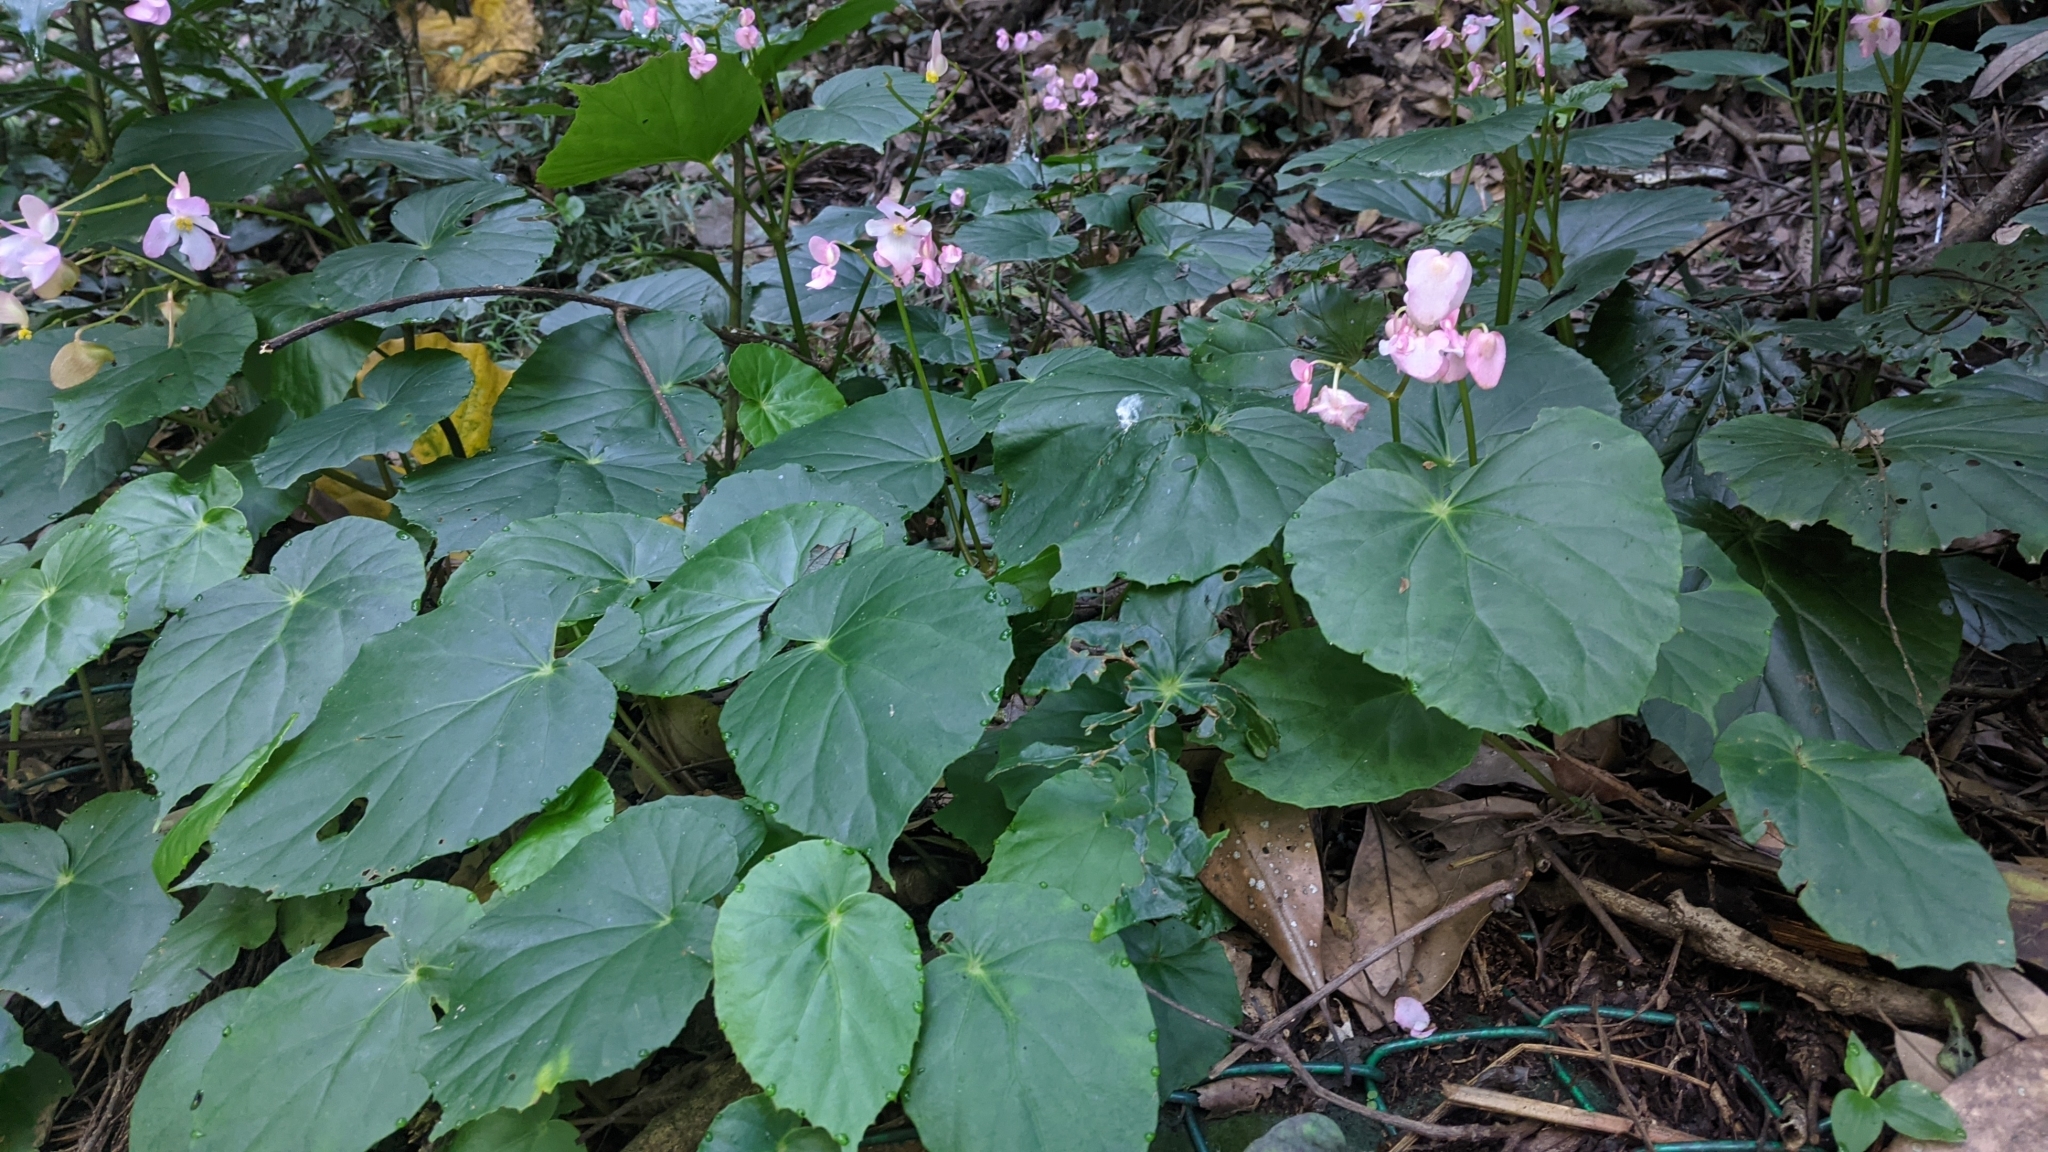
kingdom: Plantae
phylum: Tracheophyta
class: Magnoliopsida
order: Cucurbitales
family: Begoniaceae
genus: Begonia
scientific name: Begonia chitoensis
